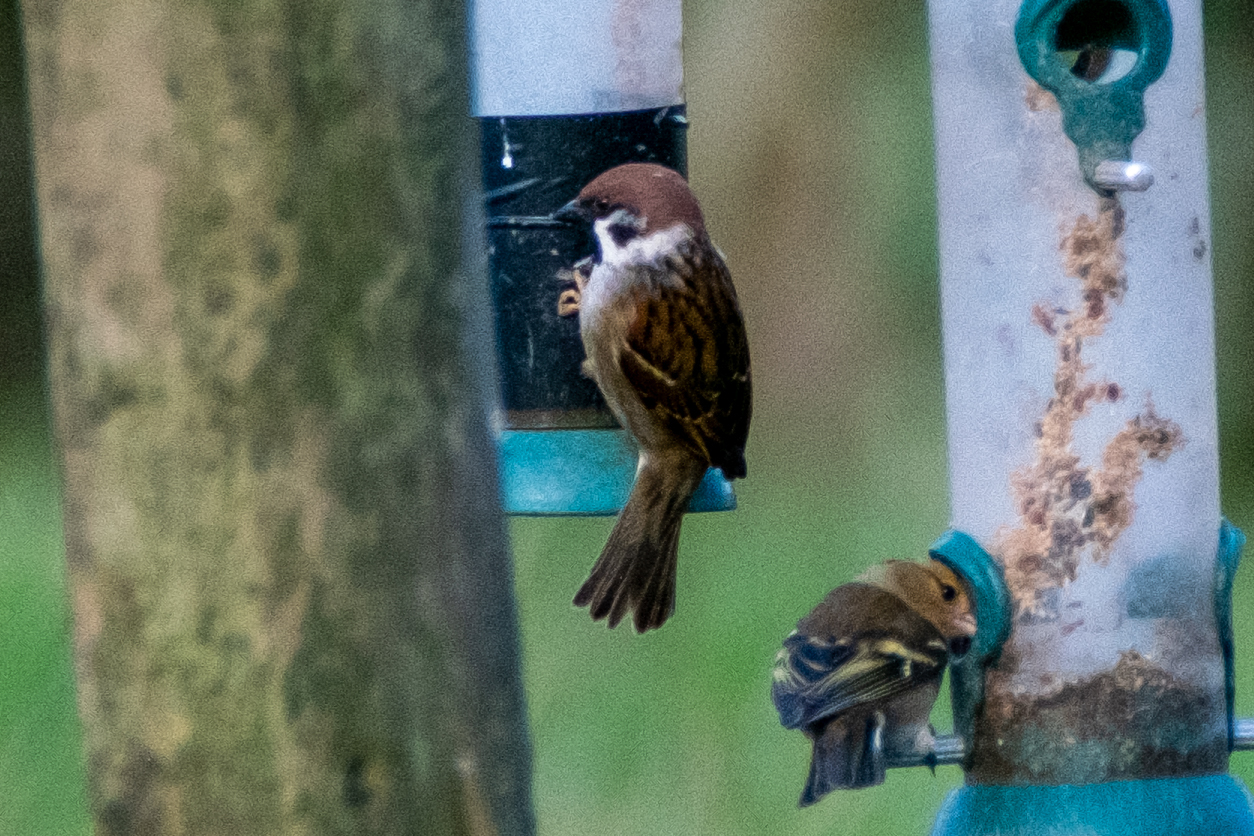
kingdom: Animalia
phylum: Chordata
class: Aves
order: Passeriformes
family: Passeridae
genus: Passer
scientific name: Passer montanus
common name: Eurasian tree sparrow
